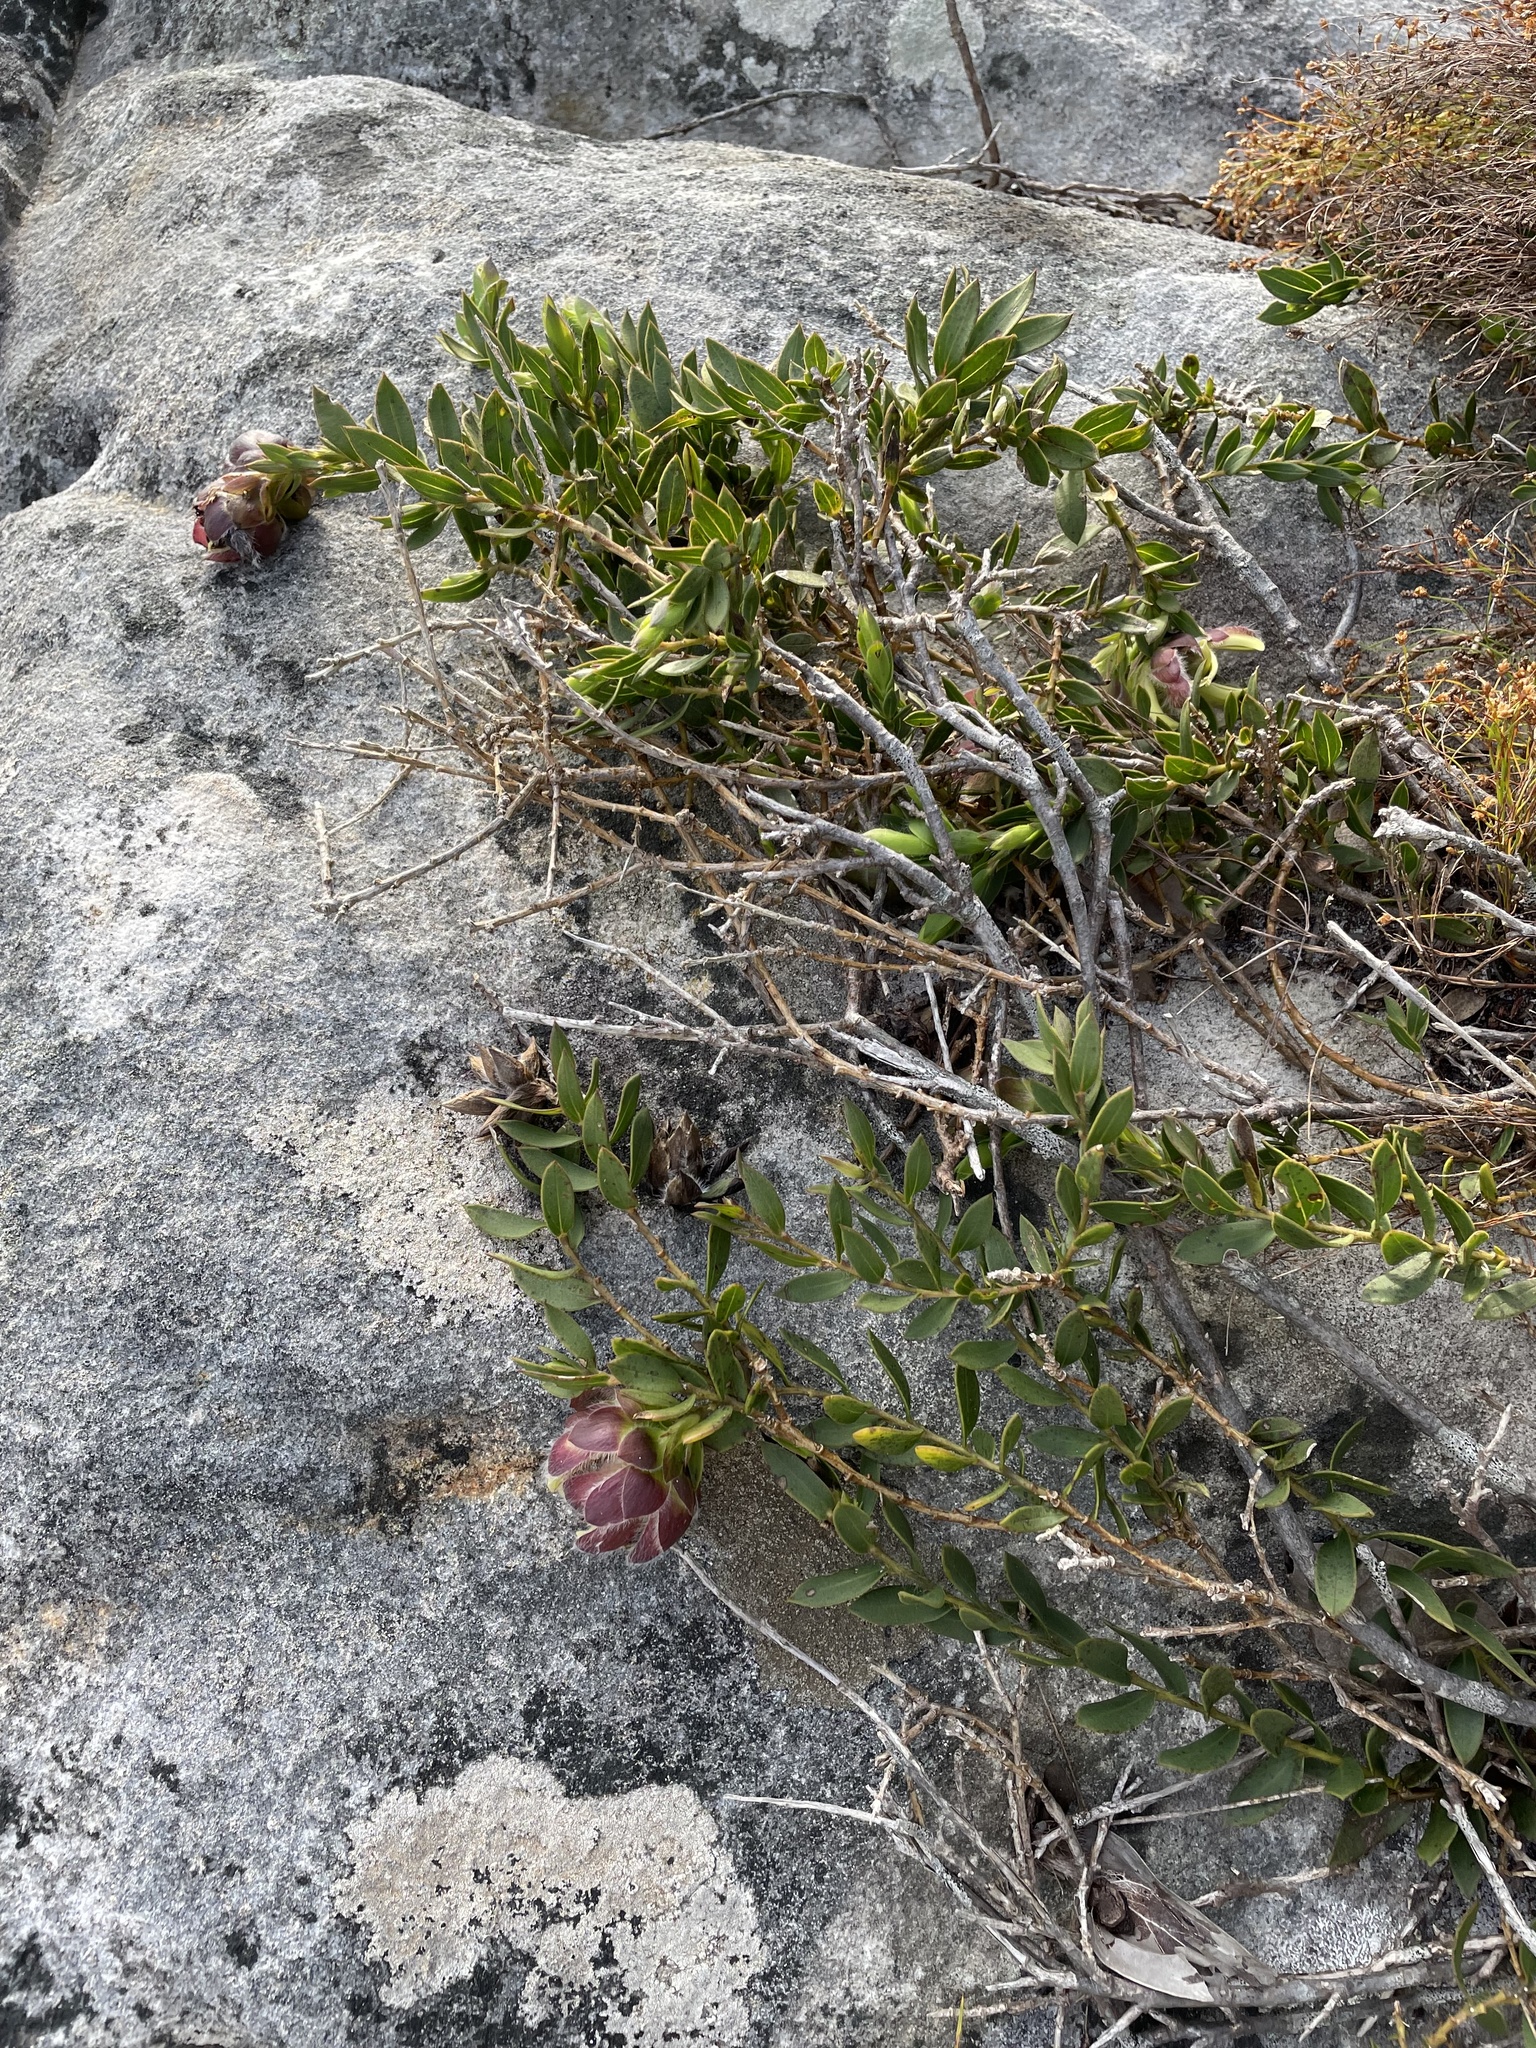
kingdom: Plantae
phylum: Tracheophyta
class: Magnoliopsida
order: Fabales
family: Fabaceae
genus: Liparia
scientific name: Liparia parva
